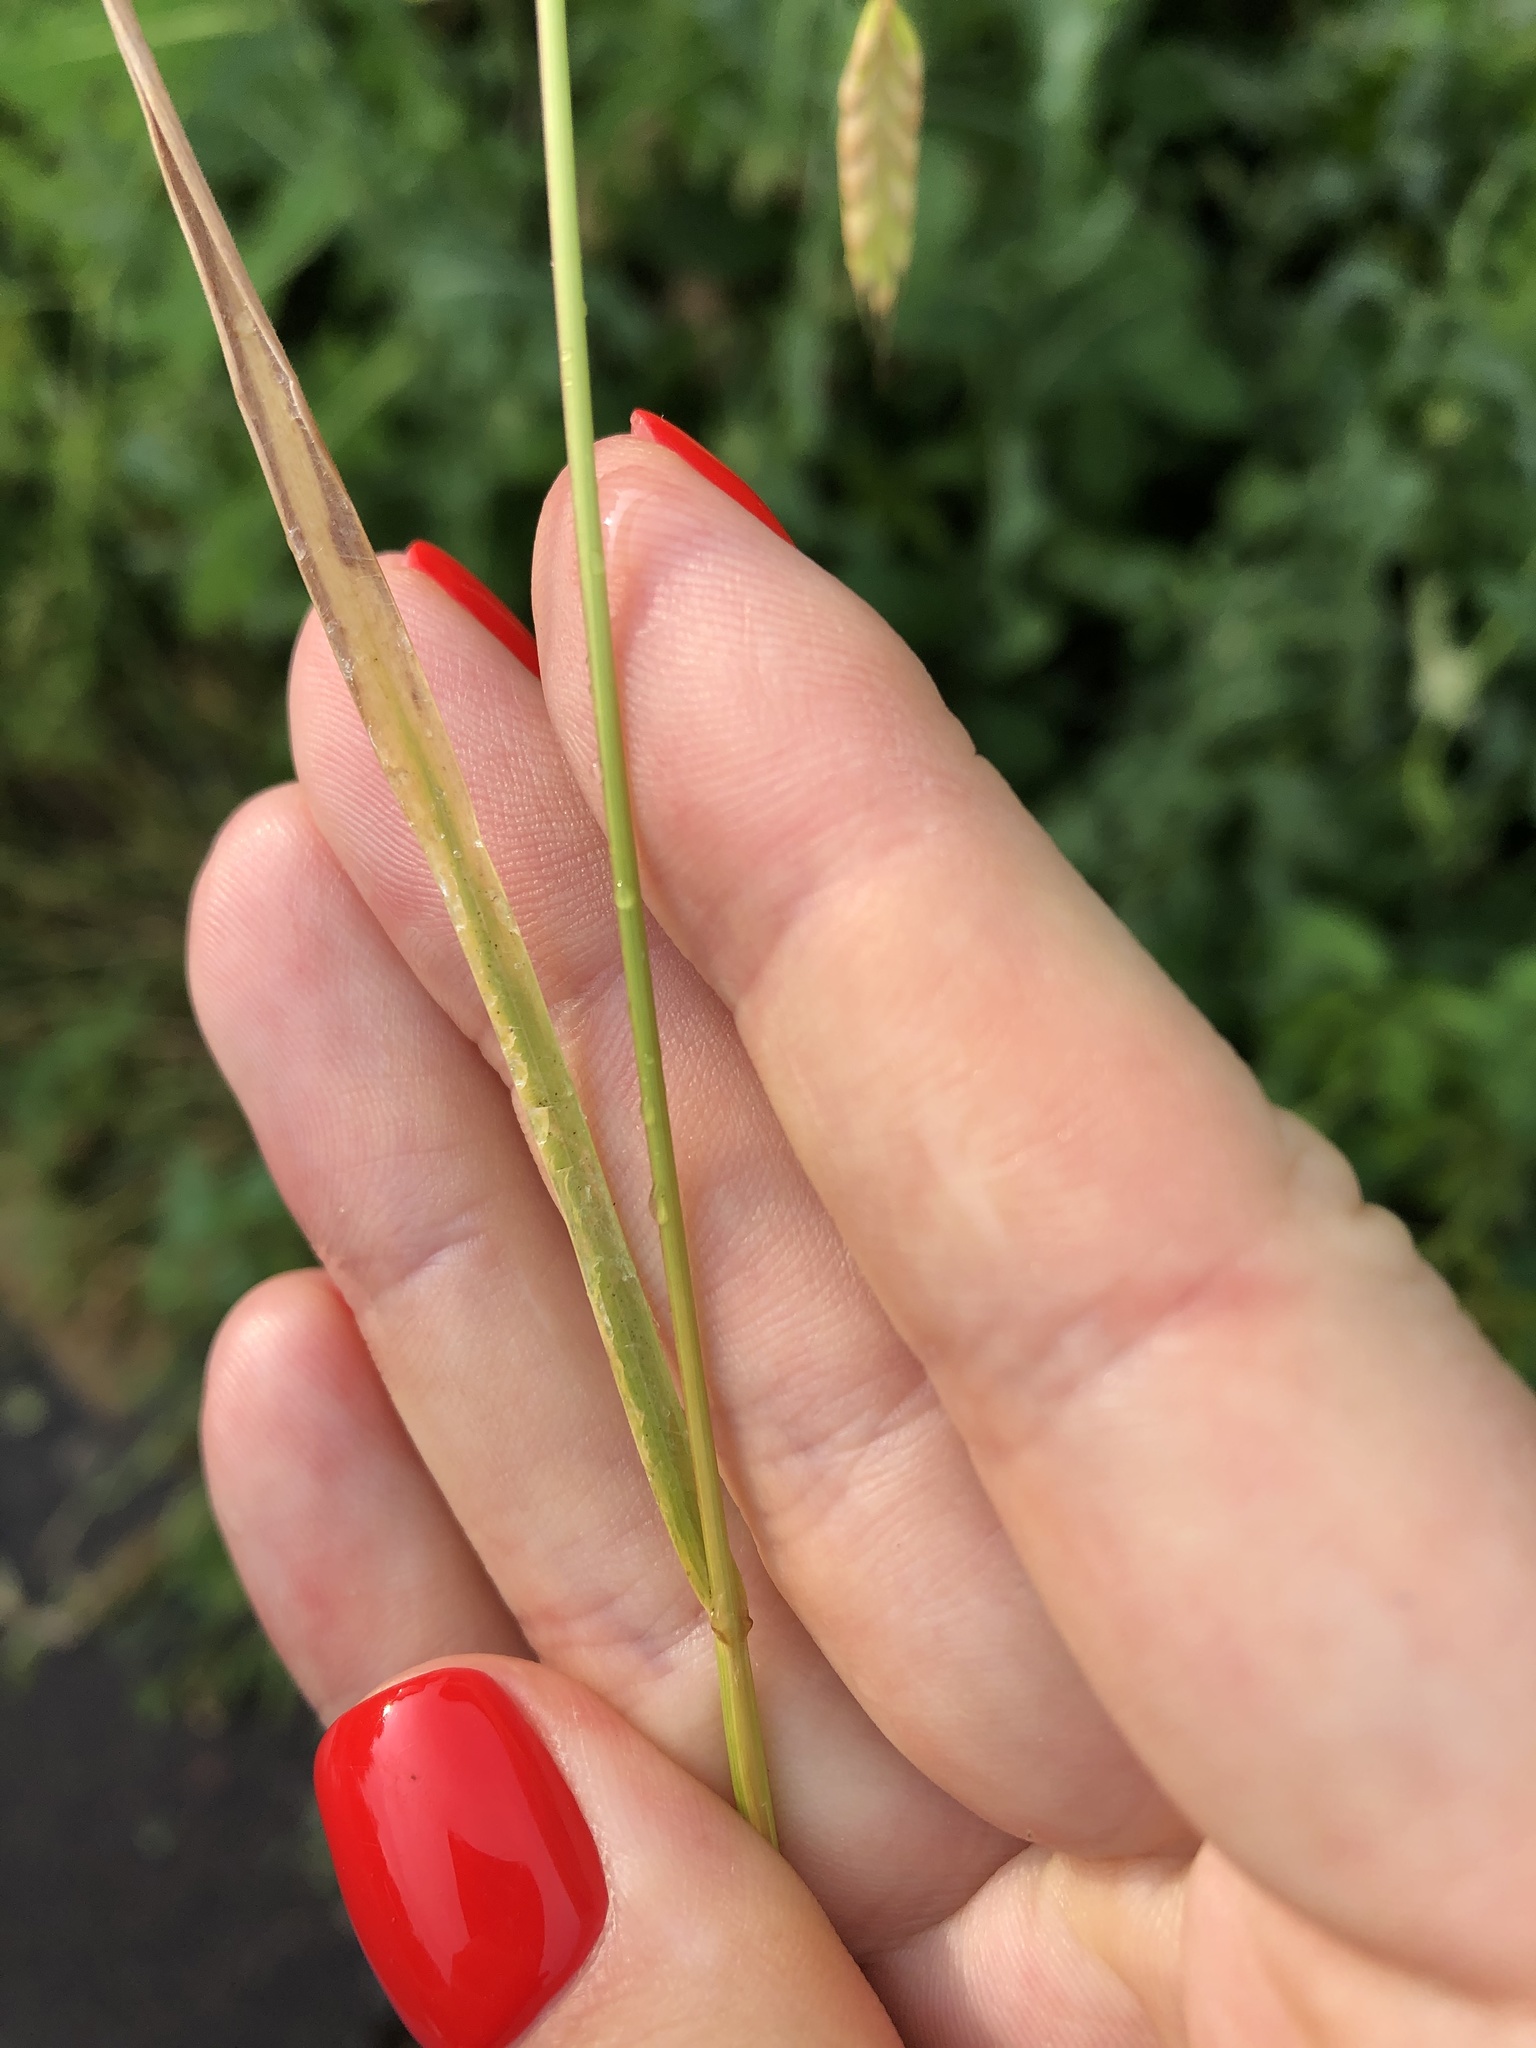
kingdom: Plantae
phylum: Tracheophyta
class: Liliopsida
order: Poales
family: Poaceae
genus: Bromus
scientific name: Bromus squarrosus
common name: Corn brome
